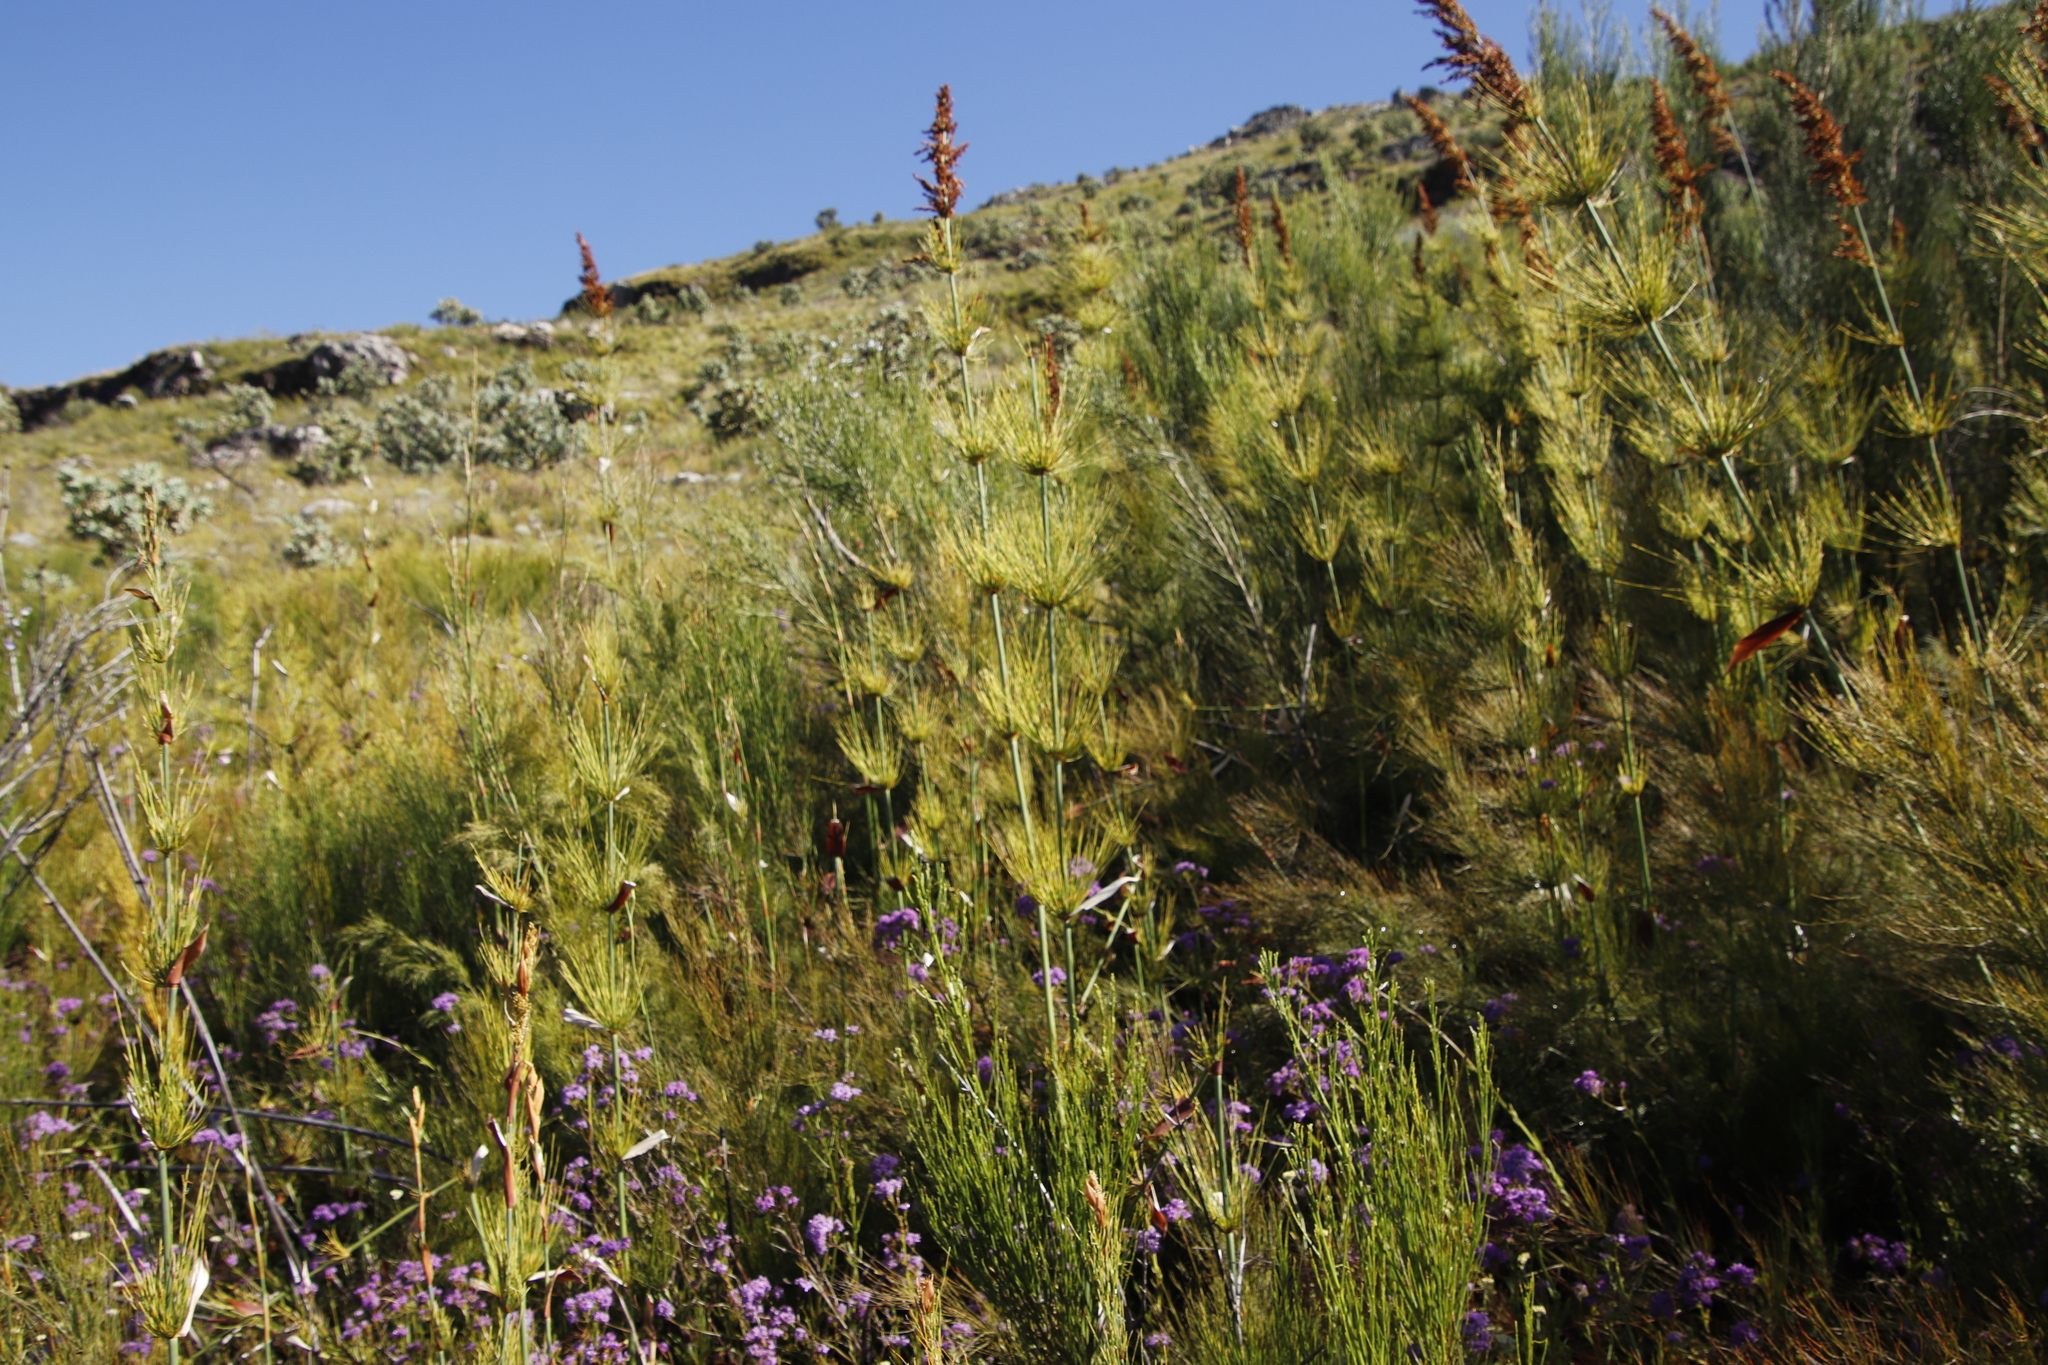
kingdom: Plantae
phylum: Tracheophyta
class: Liliopsida
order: Poales
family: Restionaceae
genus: Elegia
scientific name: Elegia capensis
